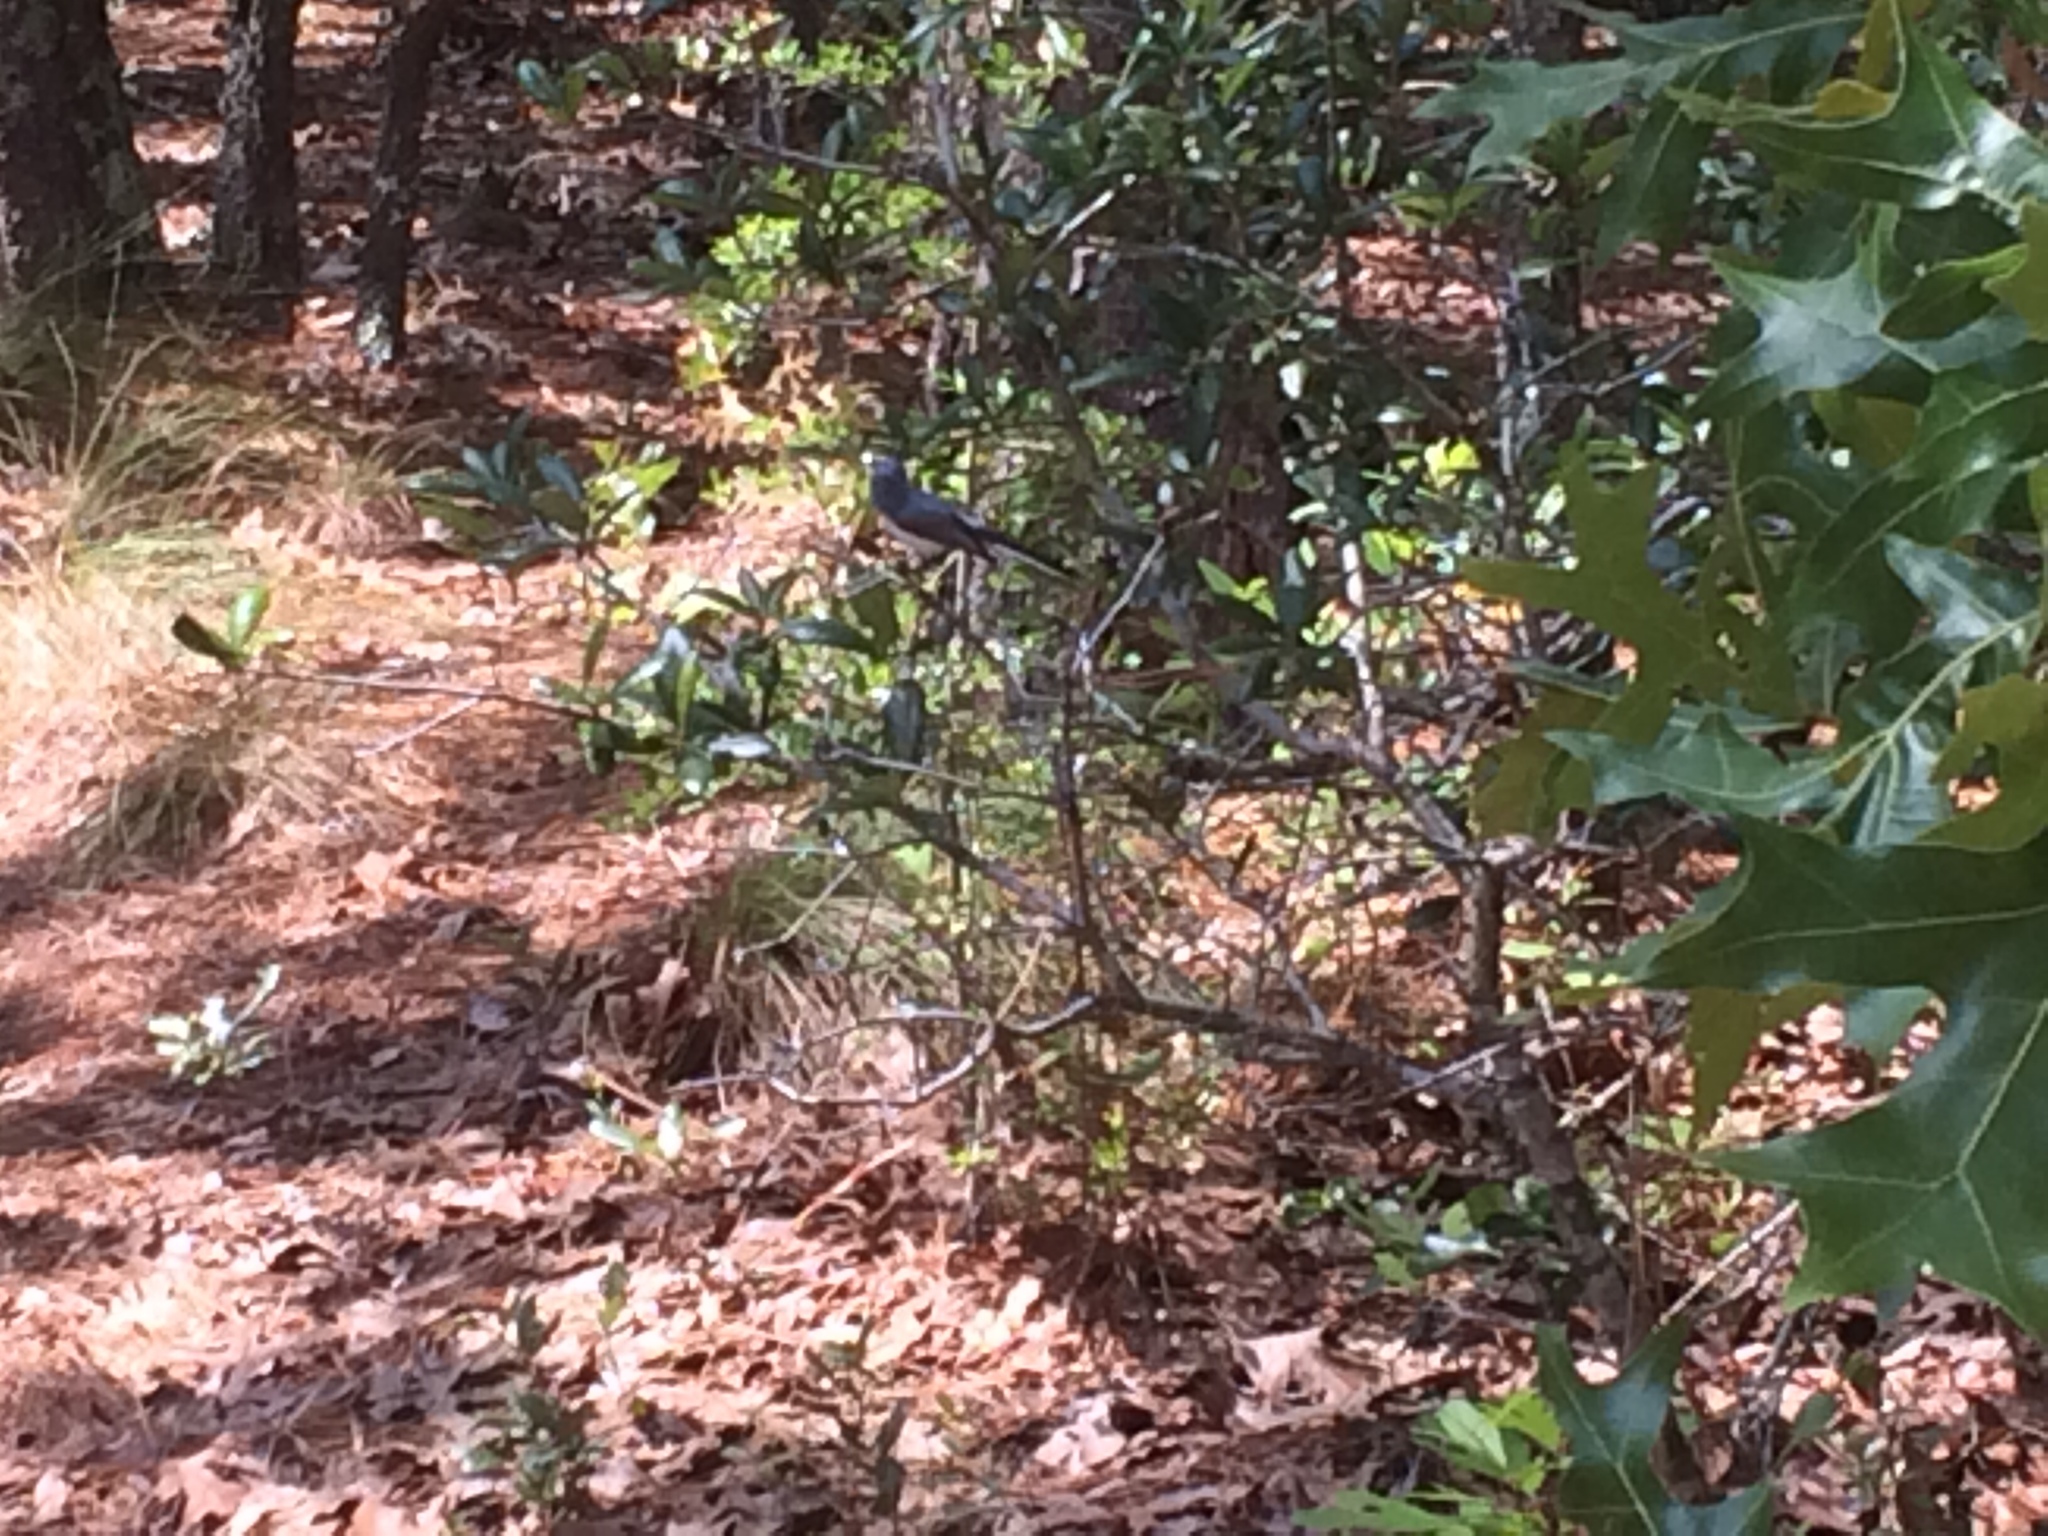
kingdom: Animalia
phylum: Chordata
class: Aves
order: Passeriformes
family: Polioptilidae
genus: Polioptila
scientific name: Polioptila caerulea
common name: Blue-gray gnatcatcher
